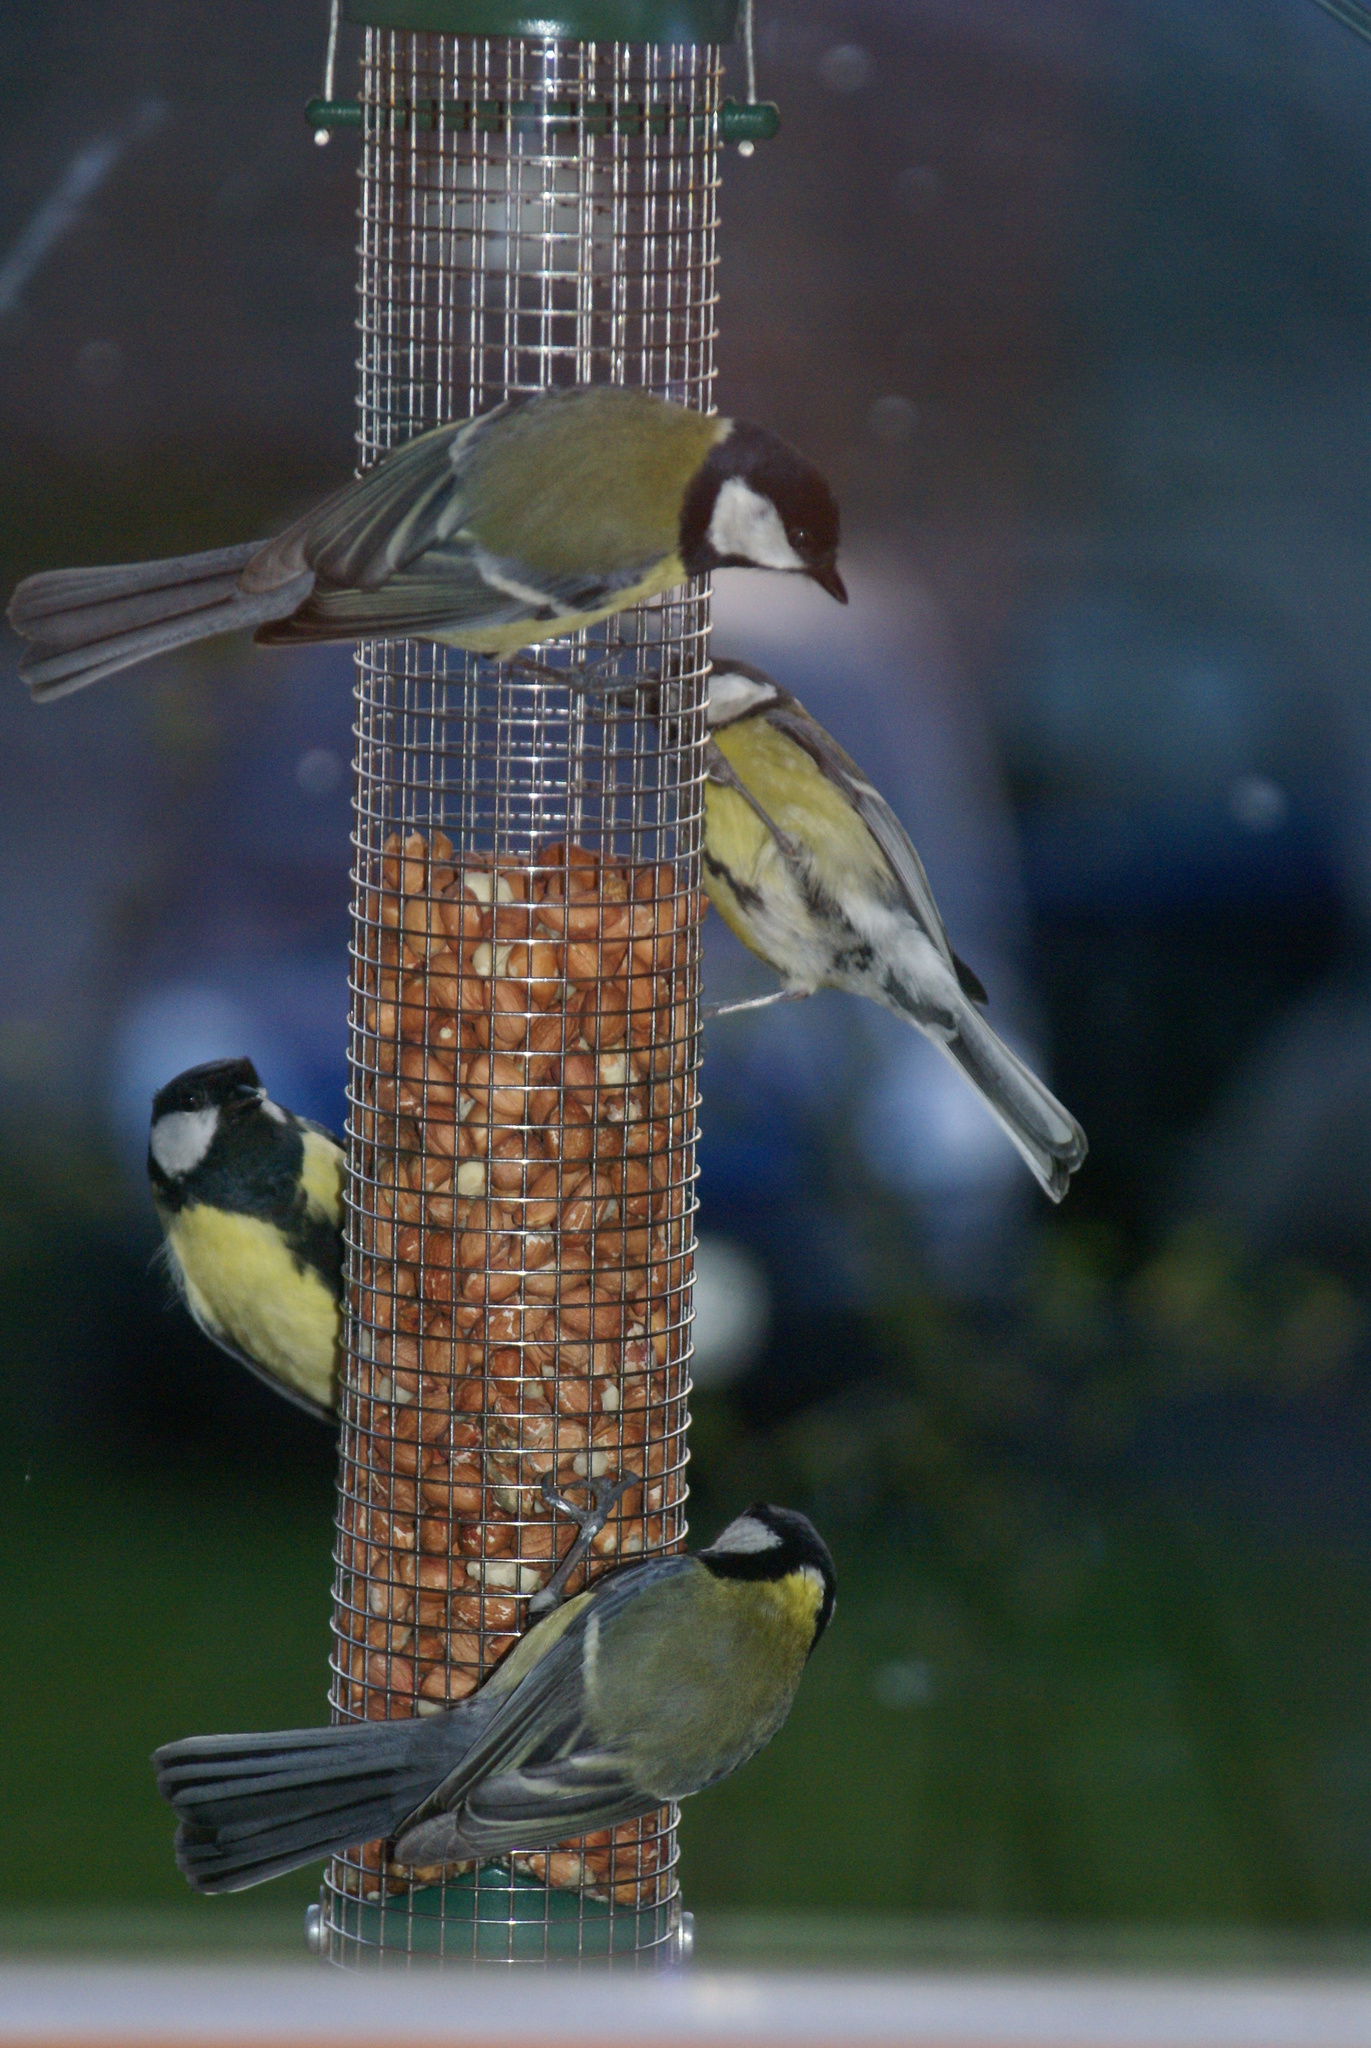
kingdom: Animalia
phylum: Chordata
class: Aves
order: Passeriformes
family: Paridae
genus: Parus
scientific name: Parus major
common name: Great tit
